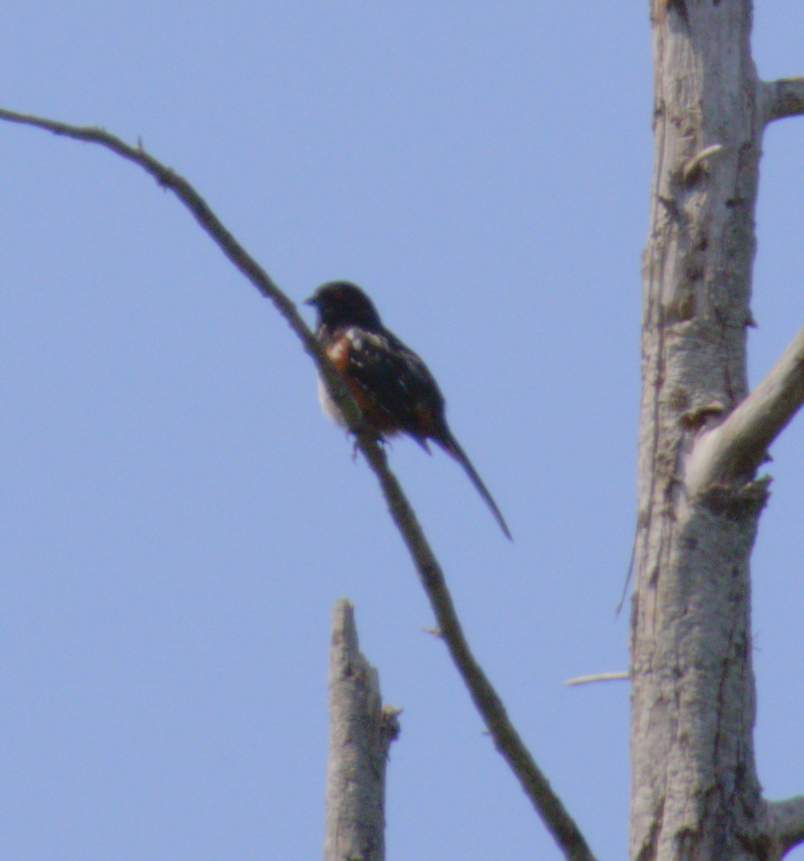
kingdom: Animalia
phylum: Chordata
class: Aves
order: Passeriformes
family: Passerellidae
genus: Pipilo
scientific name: Pipilo maculatus
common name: Spotted towhee
